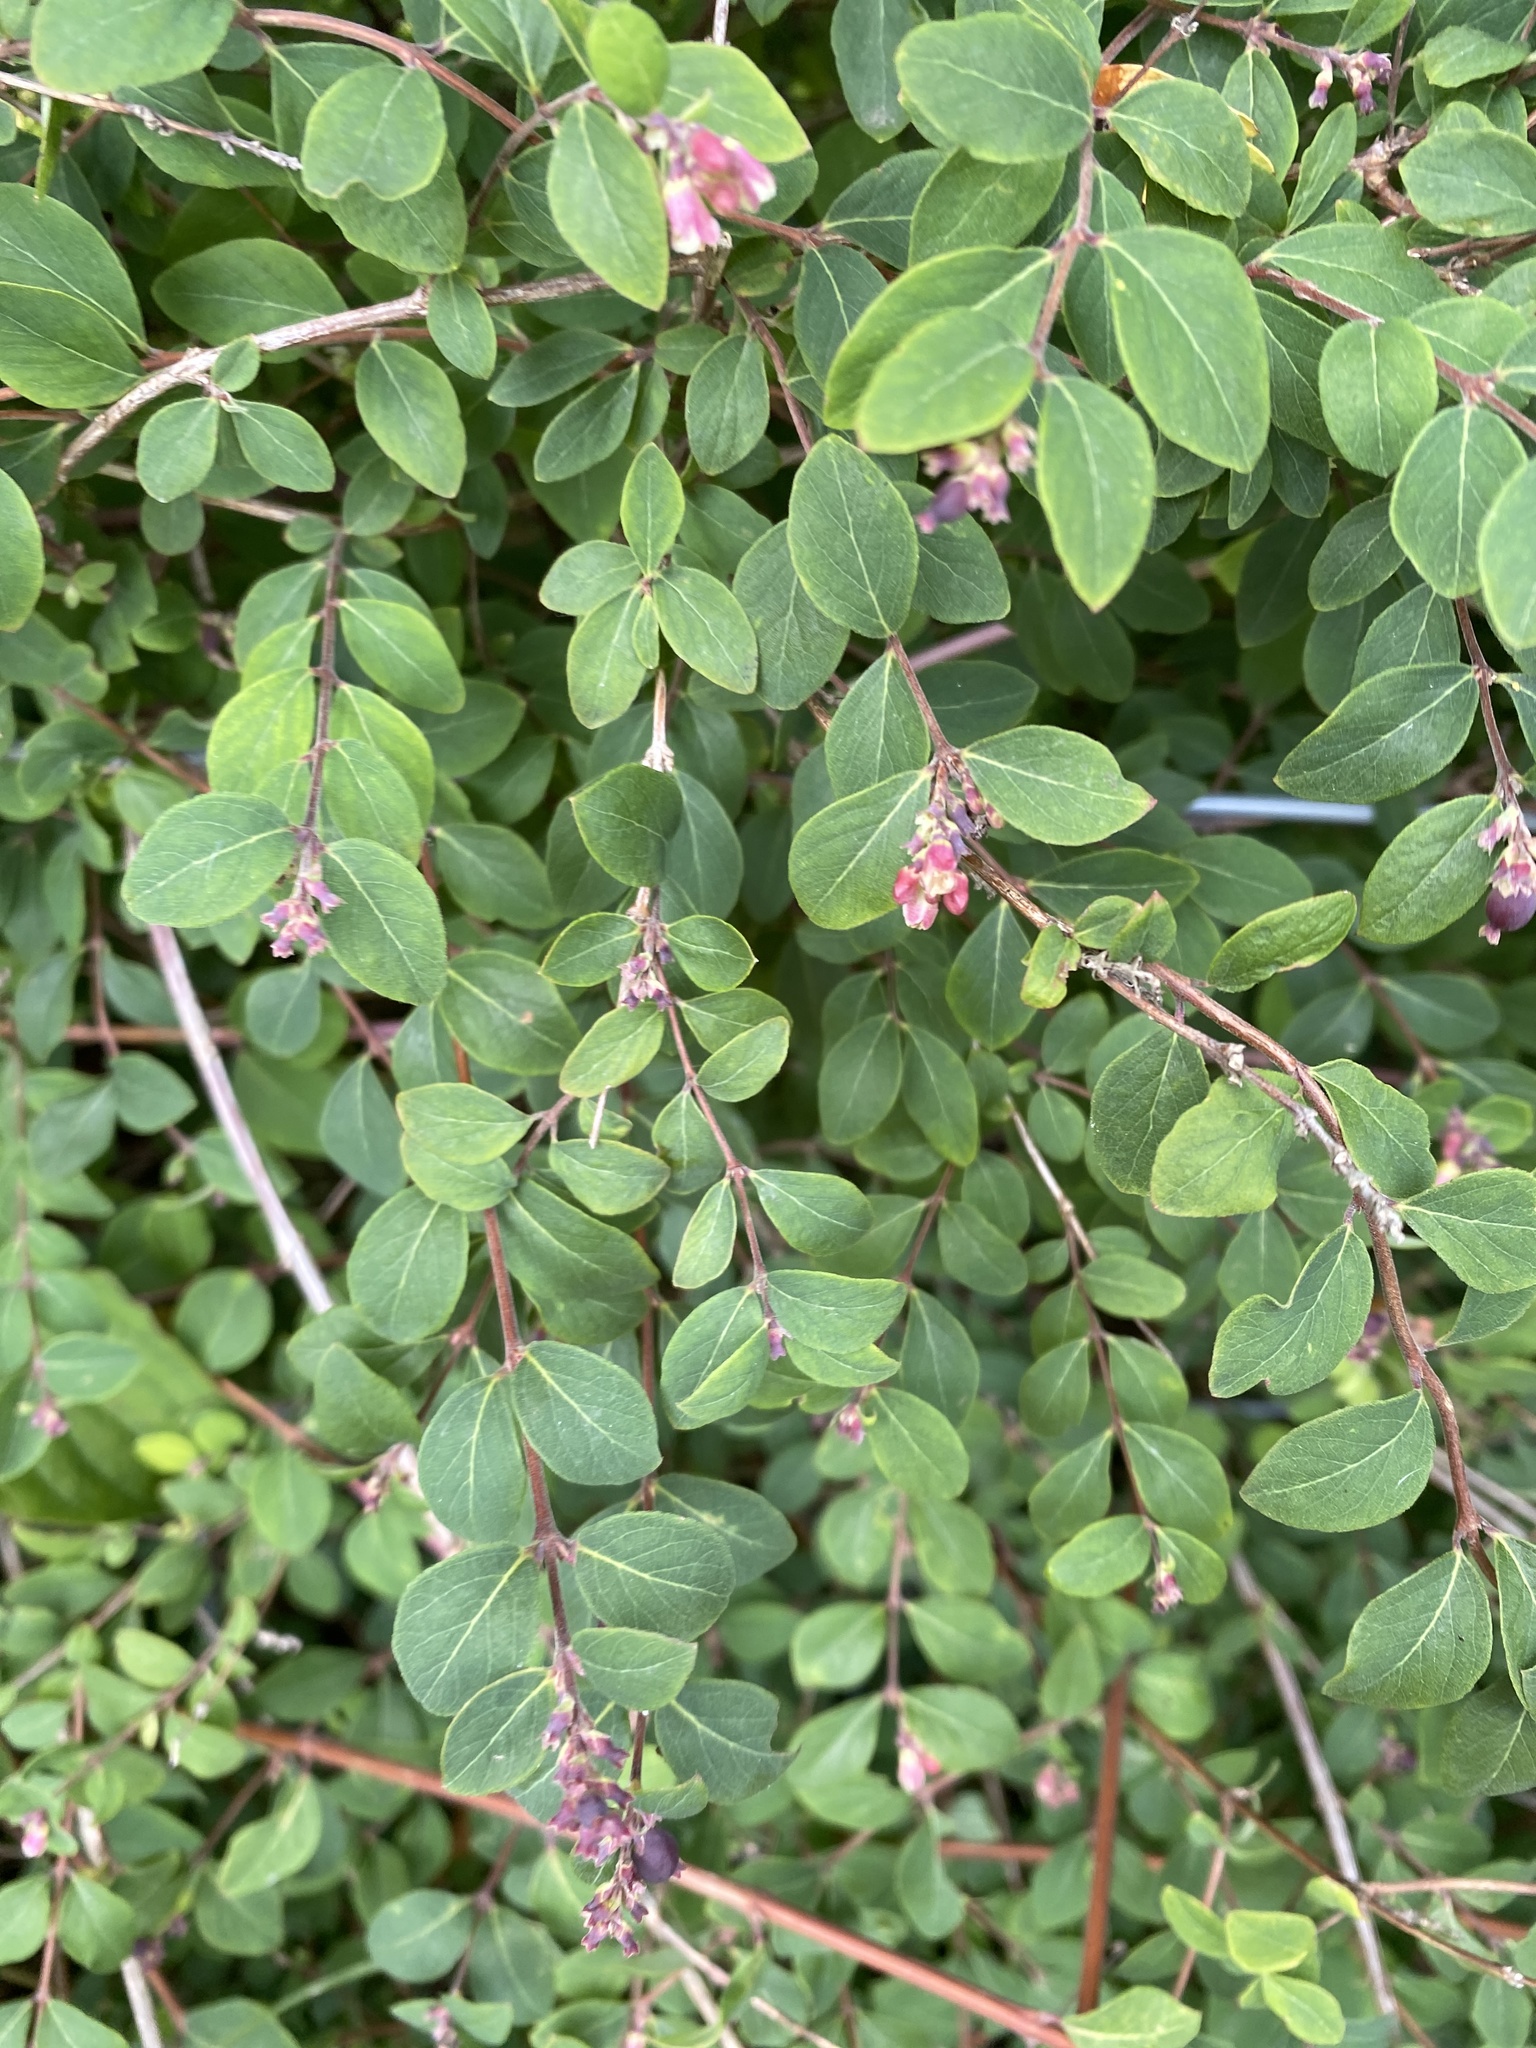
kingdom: Plantae
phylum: Tracheophyta
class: Magnoliopsida
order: Dipsacales
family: Caprifoliaceae
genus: Symphoricarpos
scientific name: Symphoricarpos albus
